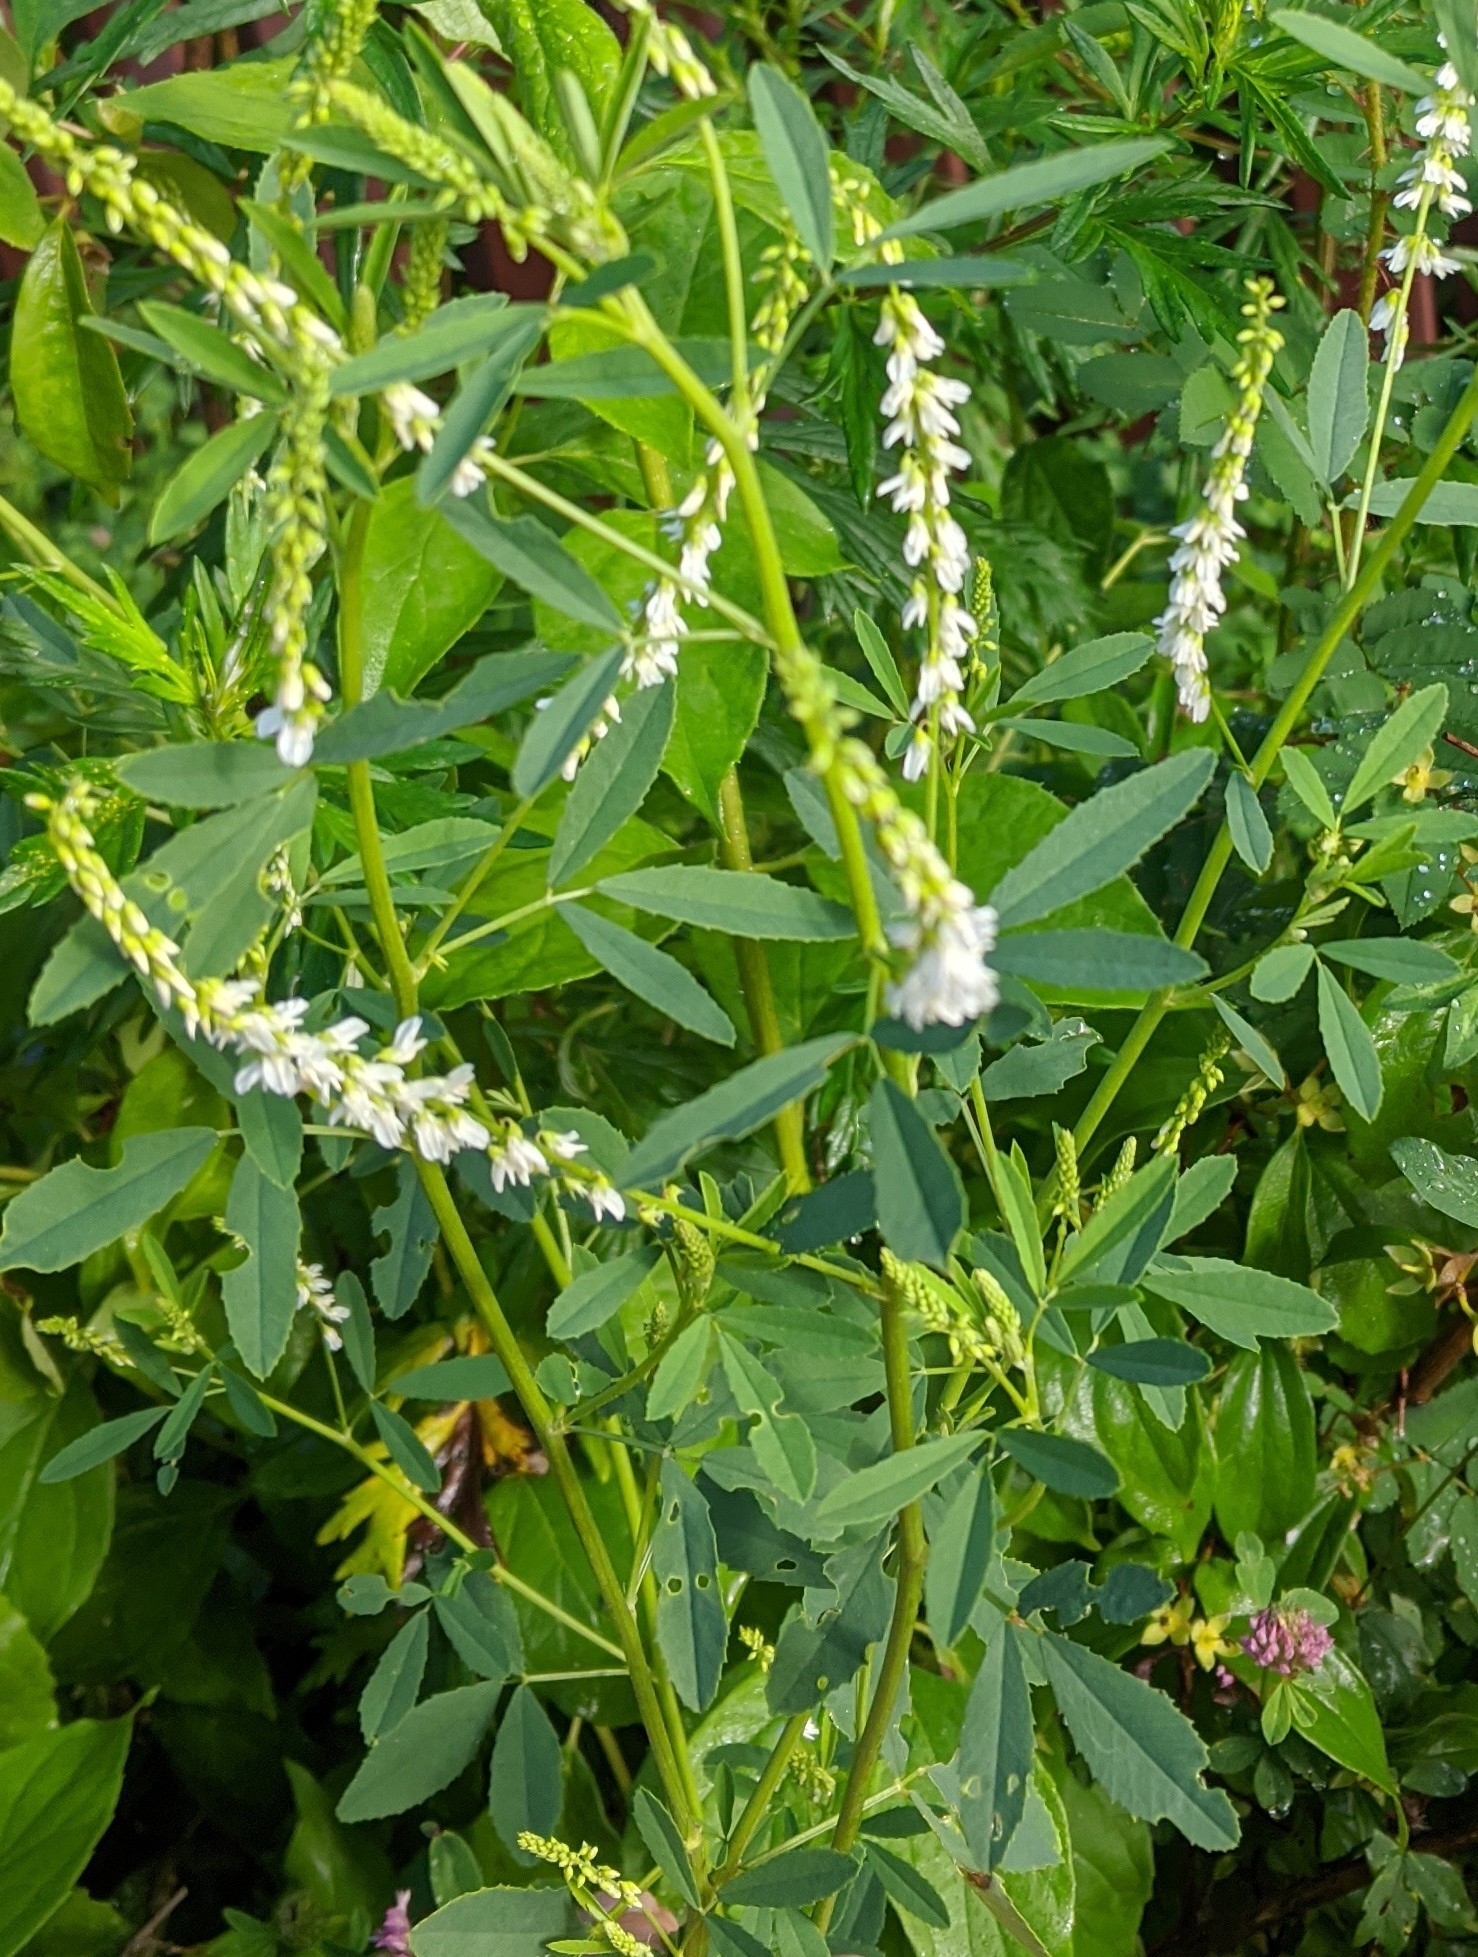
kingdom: Plantae
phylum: Tracheophyta
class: Magnoliopsida
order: Fabales
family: Fabaceae
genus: Melilotus
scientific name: Melilotus albus
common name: White melilot
